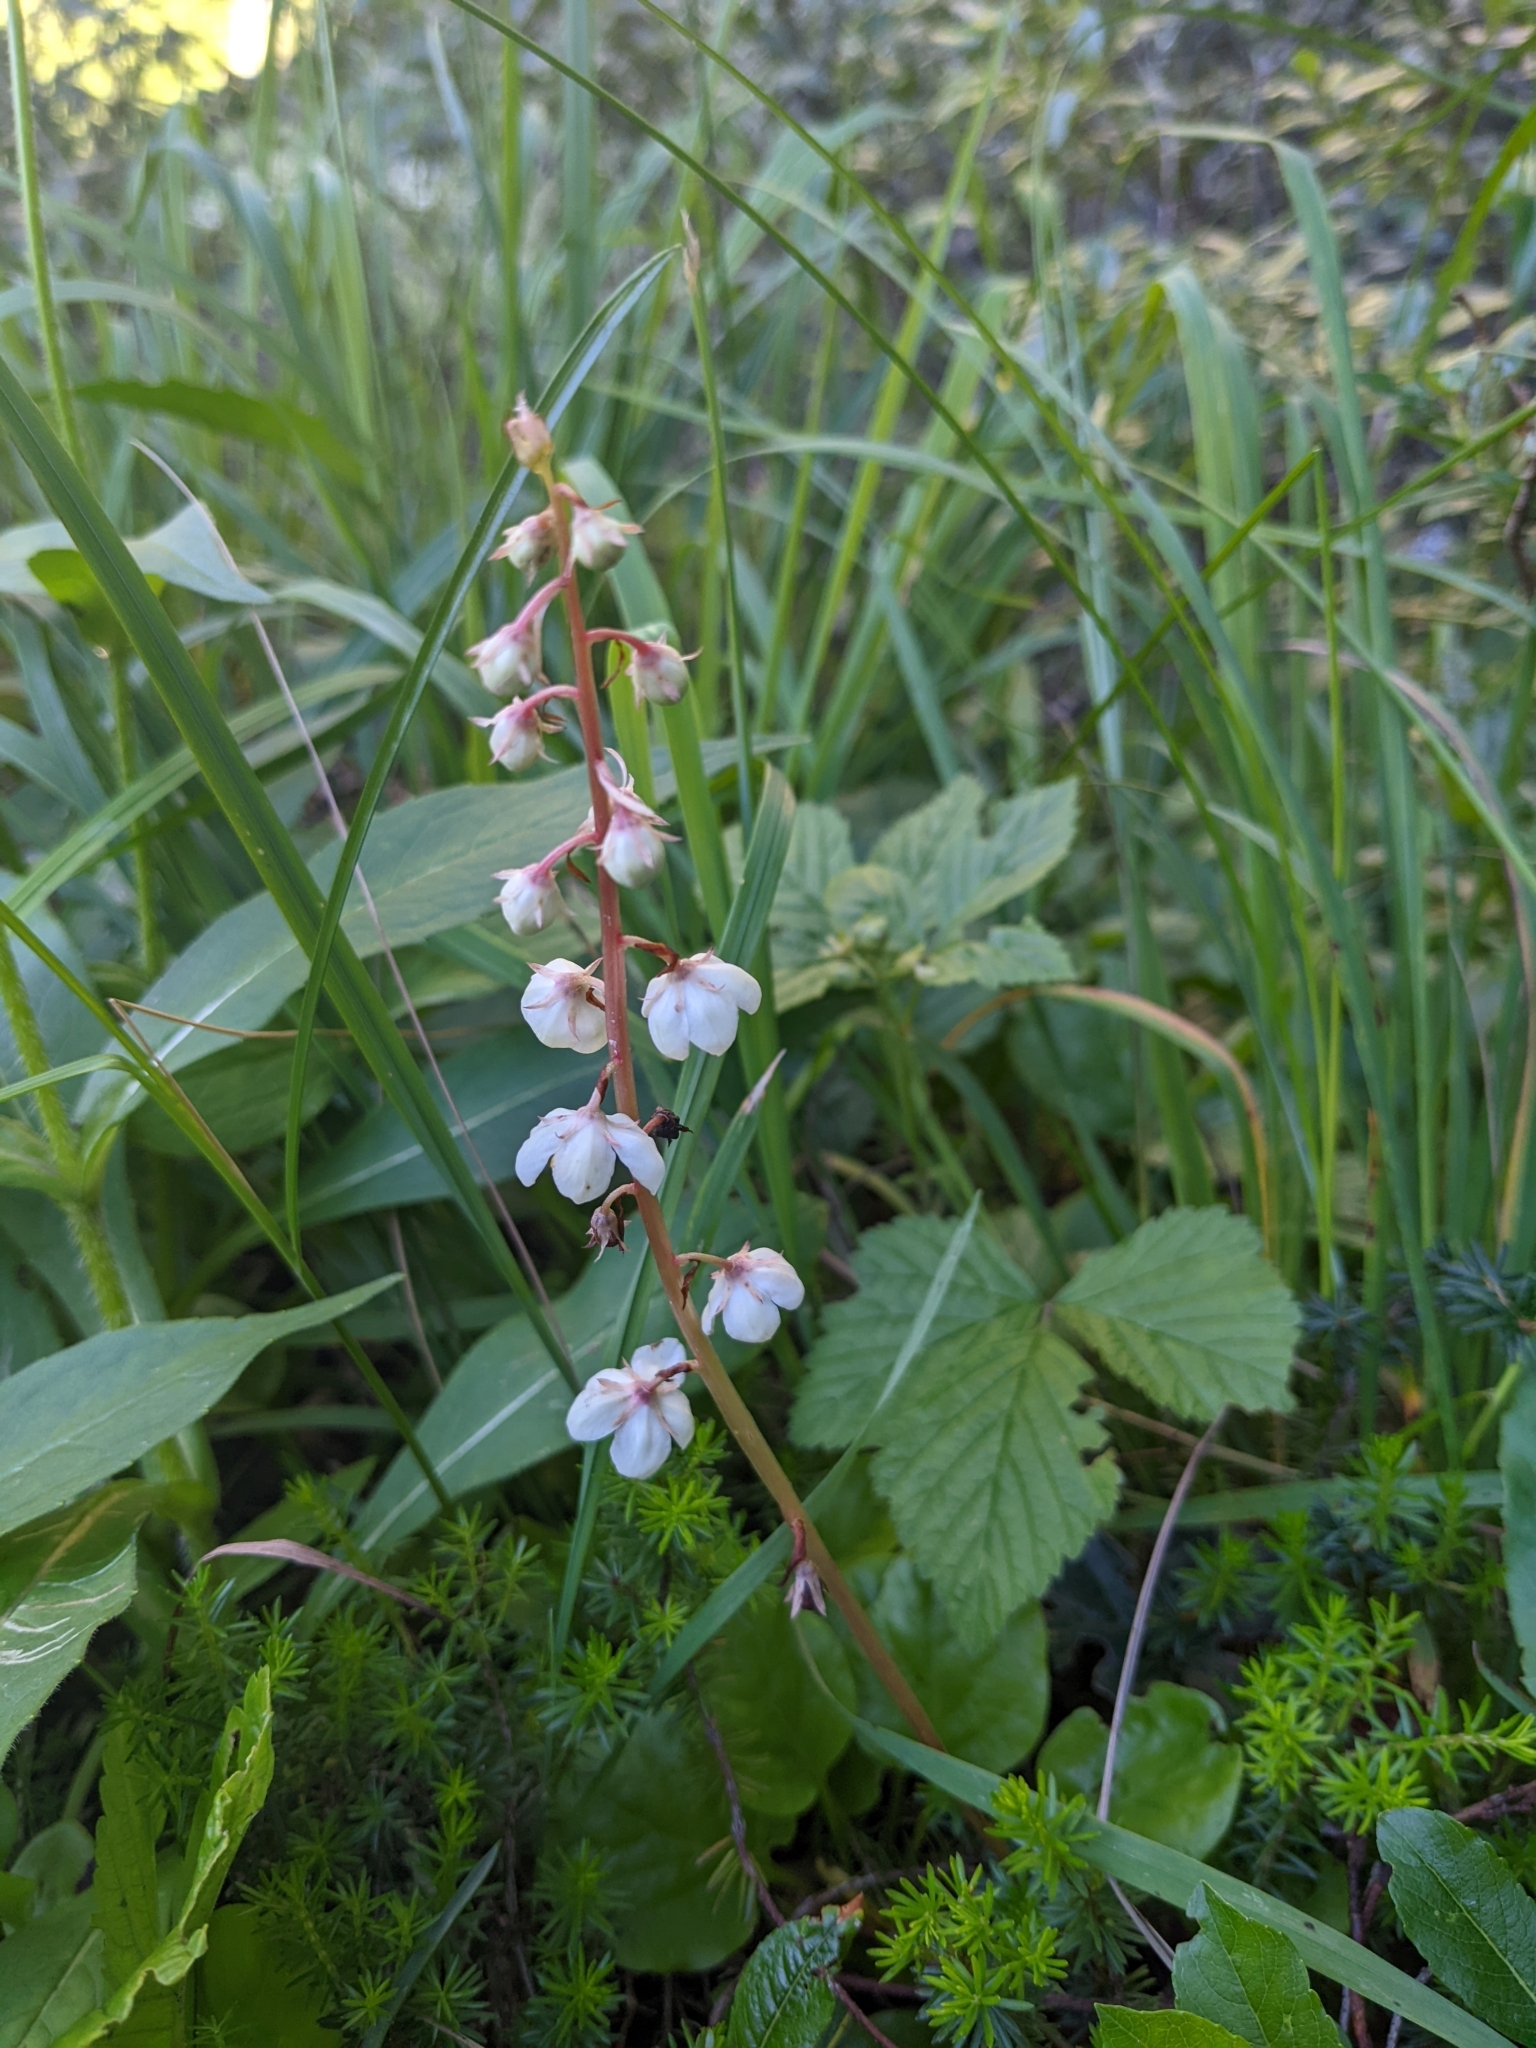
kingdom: Plantae
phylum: Tracheophyta
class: Magnoliopsida
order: Ericales
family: Ericaceae
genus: Pyrola
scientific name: Pyrola rotundifolia
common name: Round-leaved wintergreen
